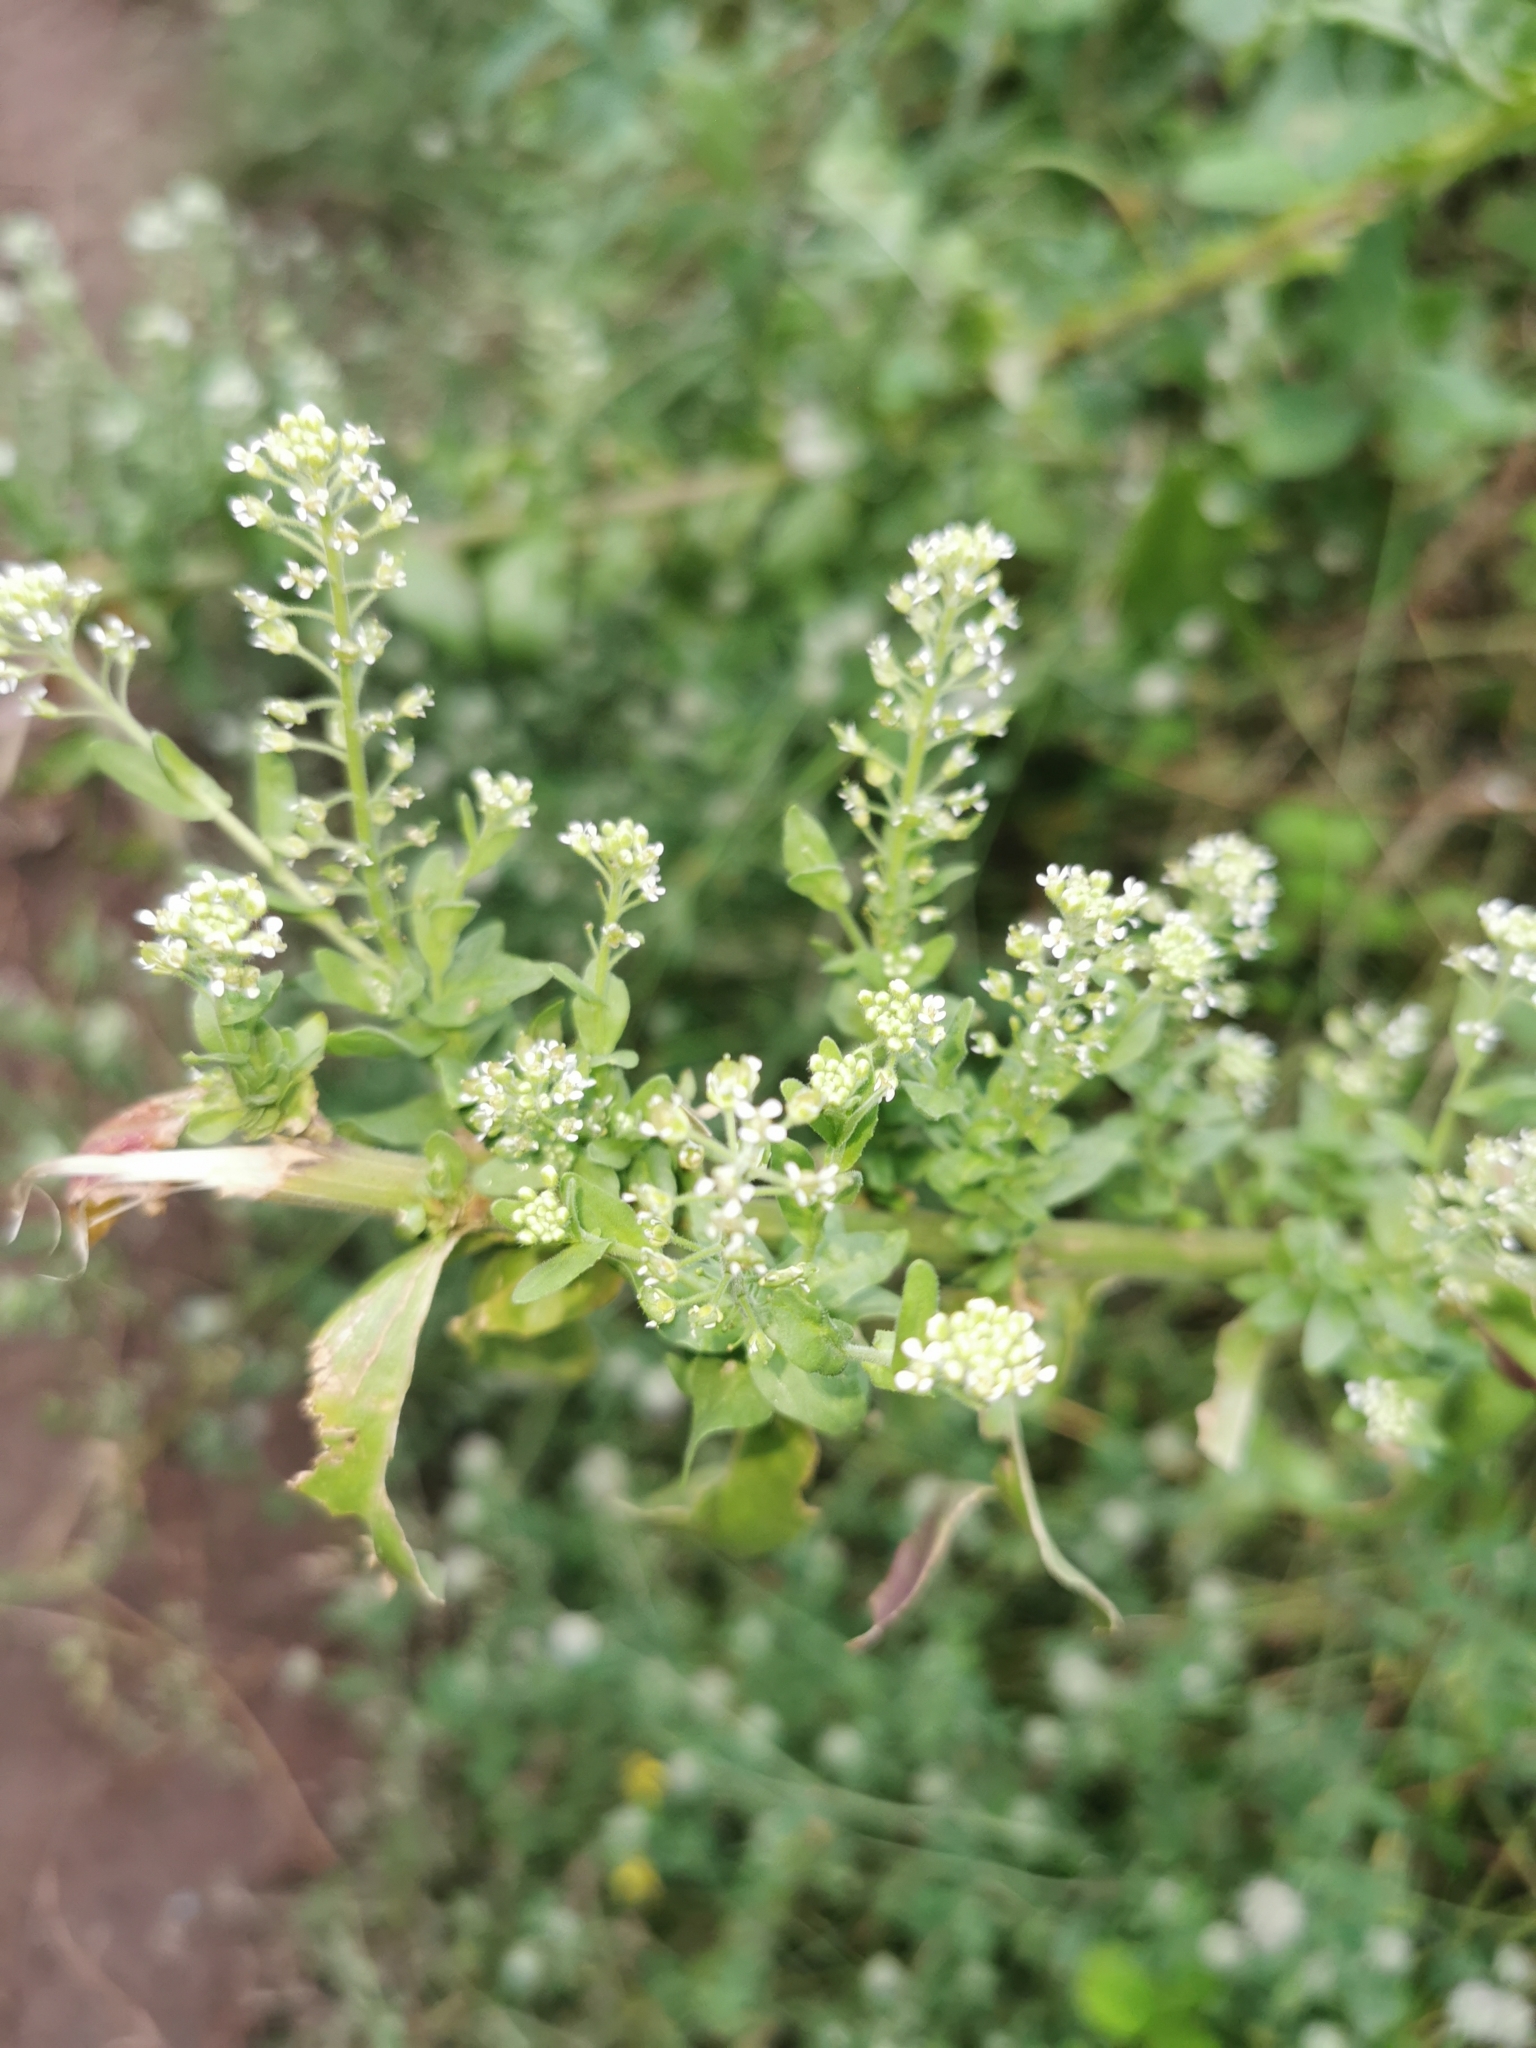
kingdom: Plantae
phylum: Tracheophyta
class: Magnoliopsida
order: Brassicales
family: Brassicaceae
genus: Lepidium
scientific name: Lepidium campestre
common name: Field pepperwort
